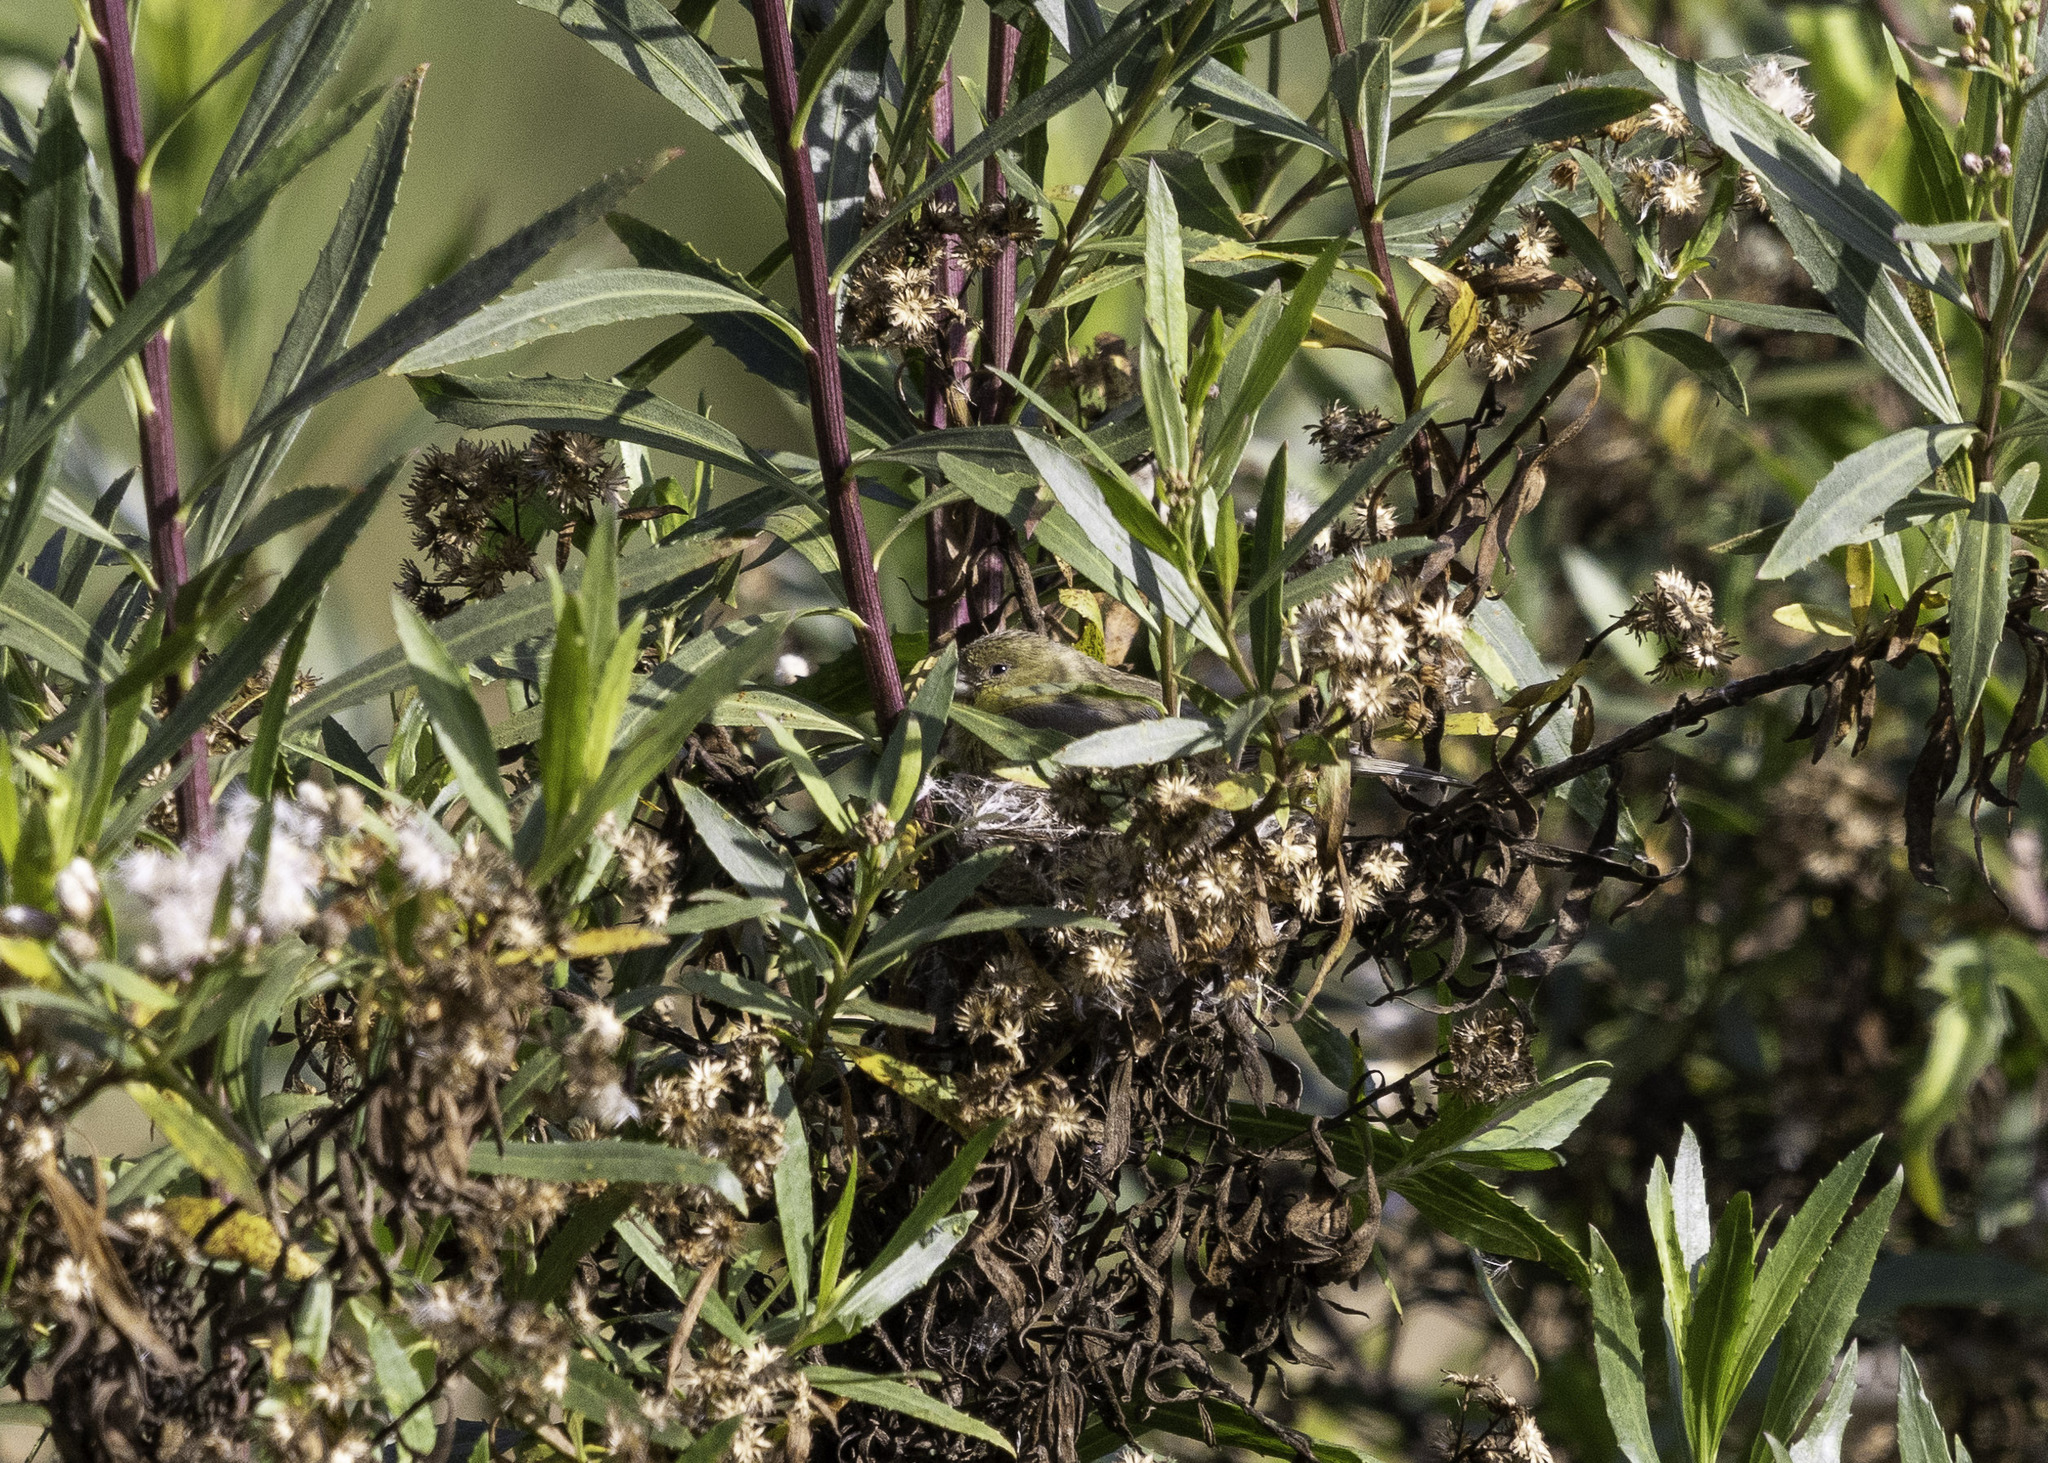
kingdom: Animalia
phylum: Chordata
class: Aves
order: Passeriformes
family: Fringillidae
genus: Spinus
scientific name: Spinus psaltria
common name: Lesser goldfinch
